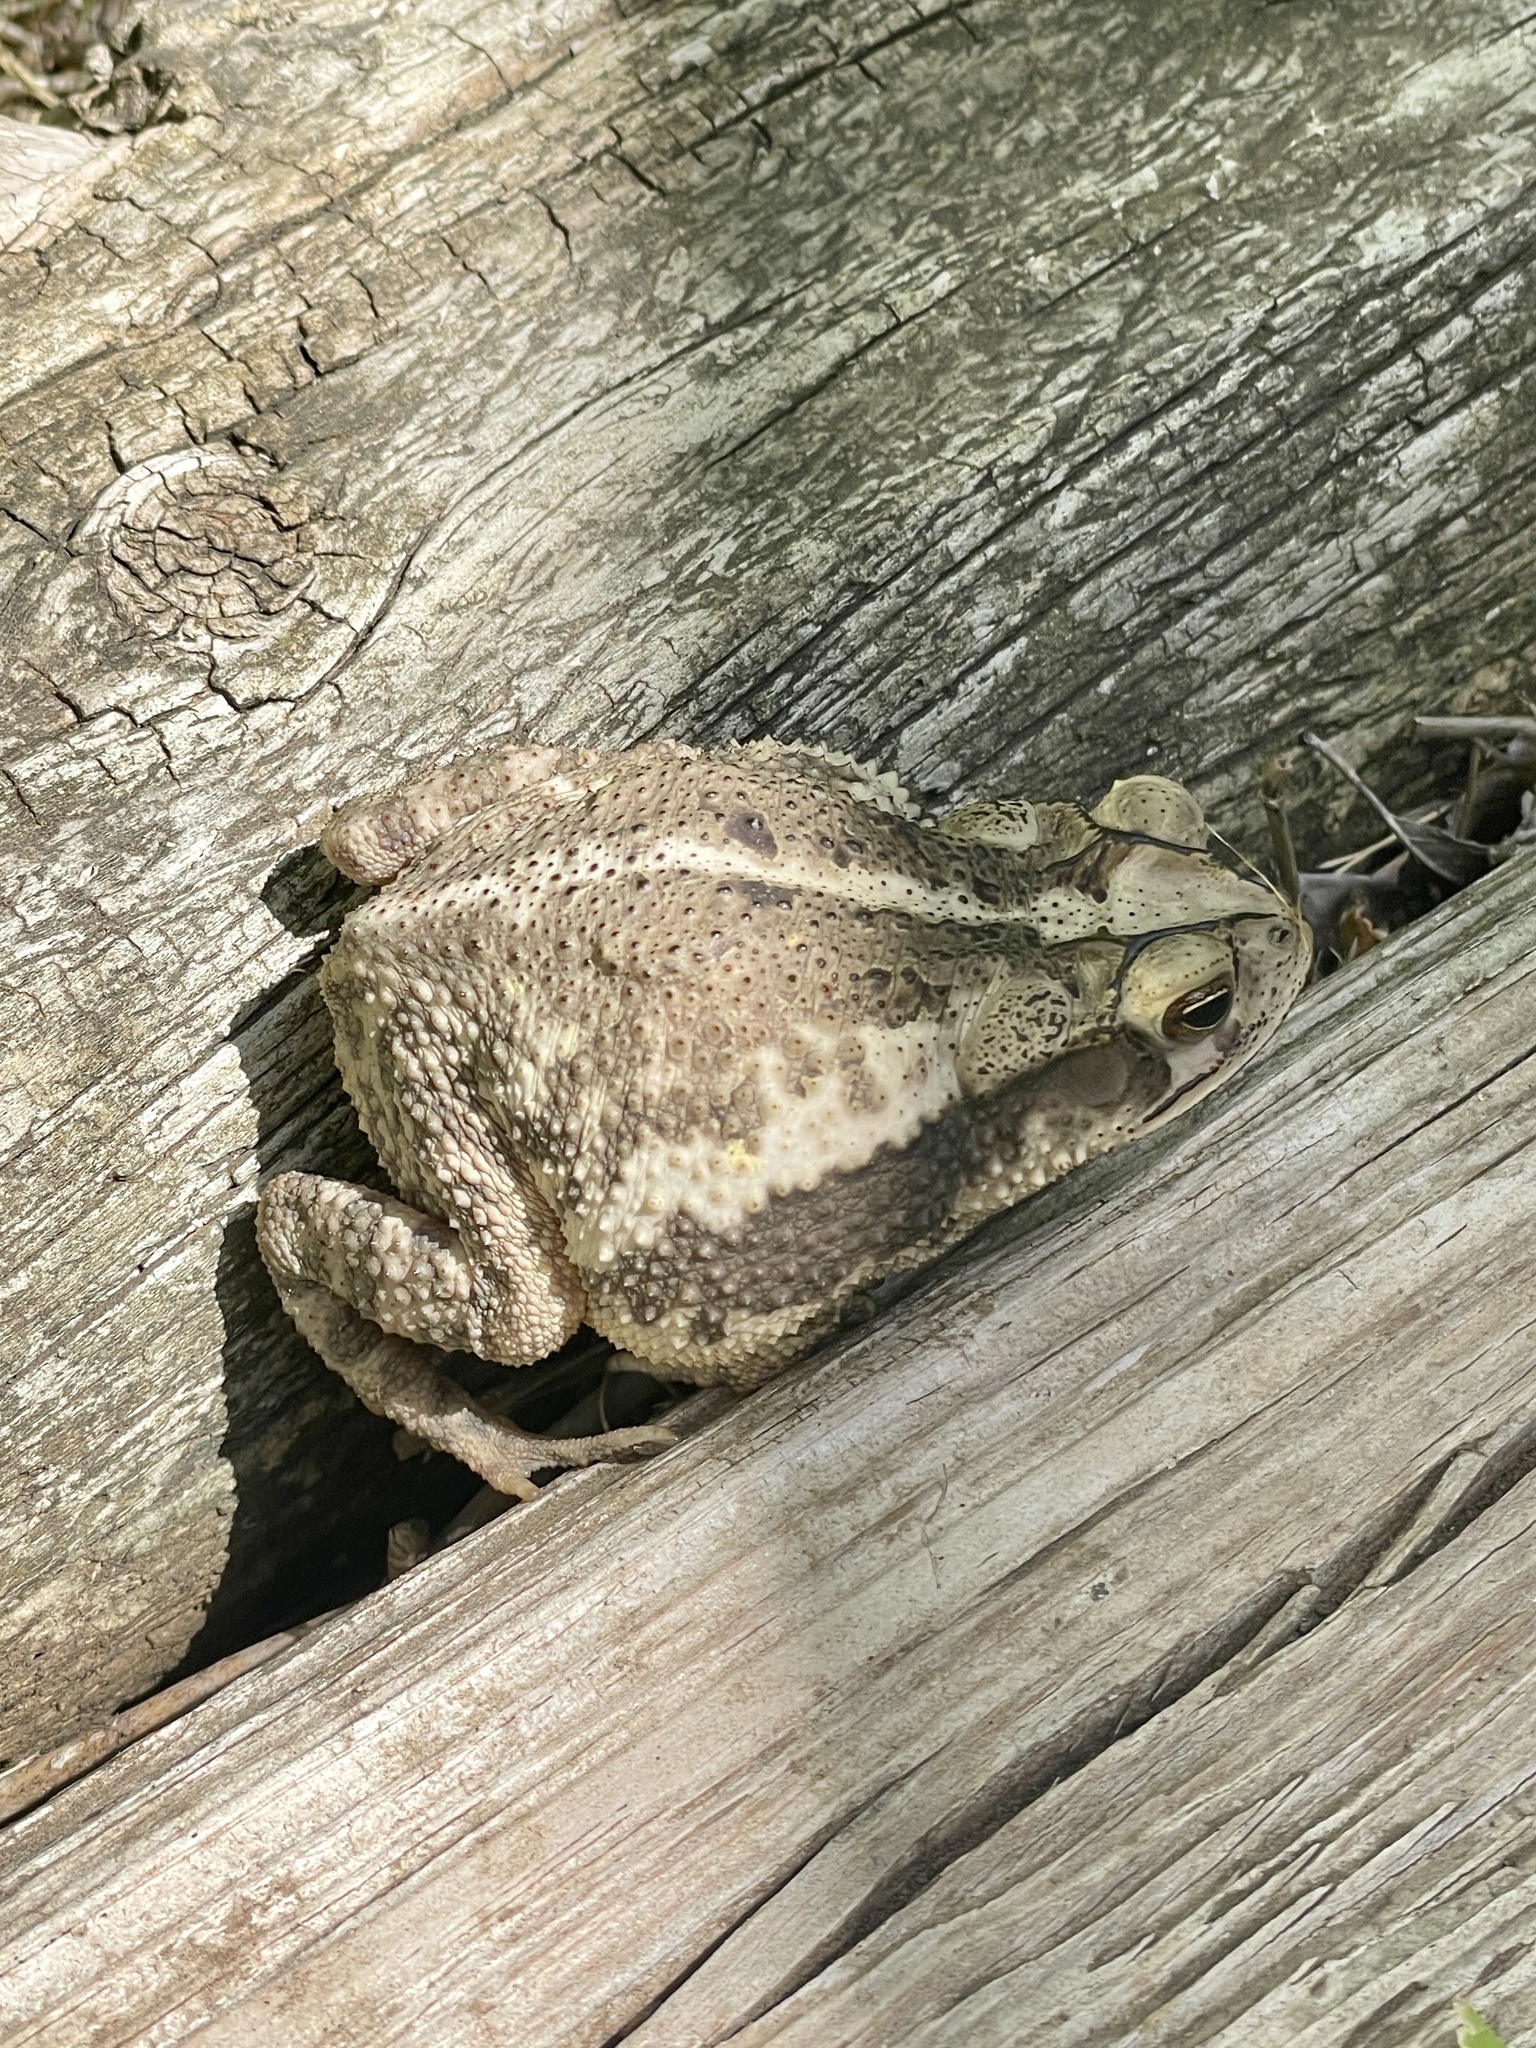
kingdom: Animalia
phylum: Chordata
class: Amphibia
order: Anura
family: Bufonidae
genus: Incilius
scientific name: Incilius nebulifer
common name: Gulf coast toad
